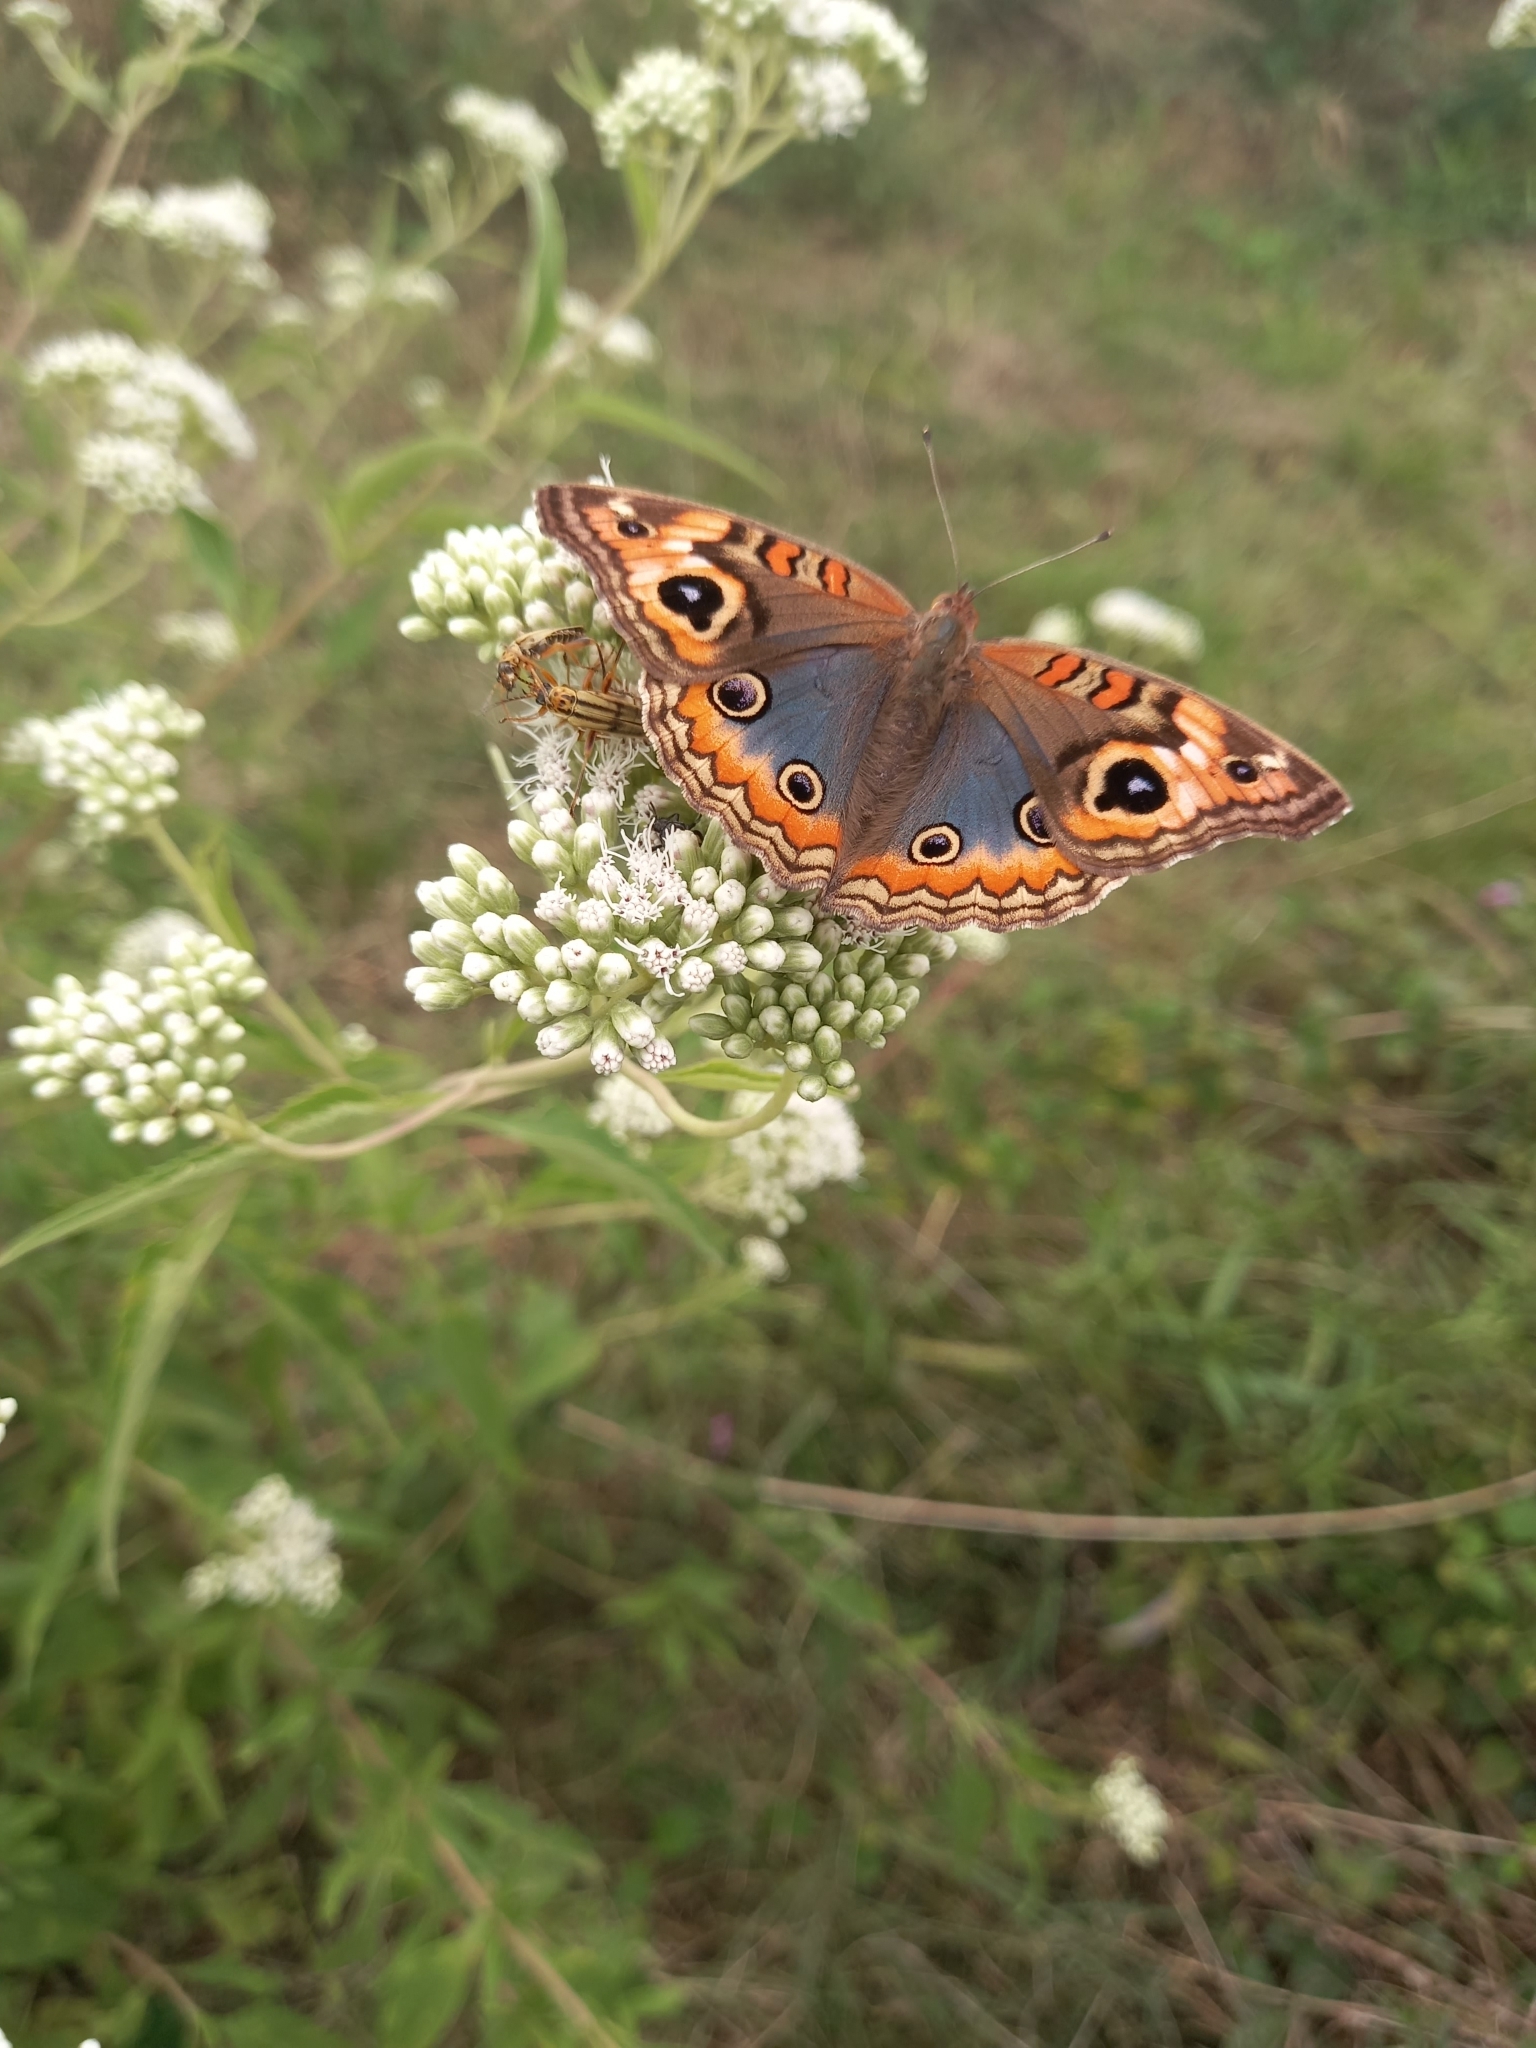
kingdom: Animalia
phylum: Arthropoda
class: Insecta
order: Lepidoptera
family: Nymphalidae
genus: Junonia
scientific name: Junonia lavinia
